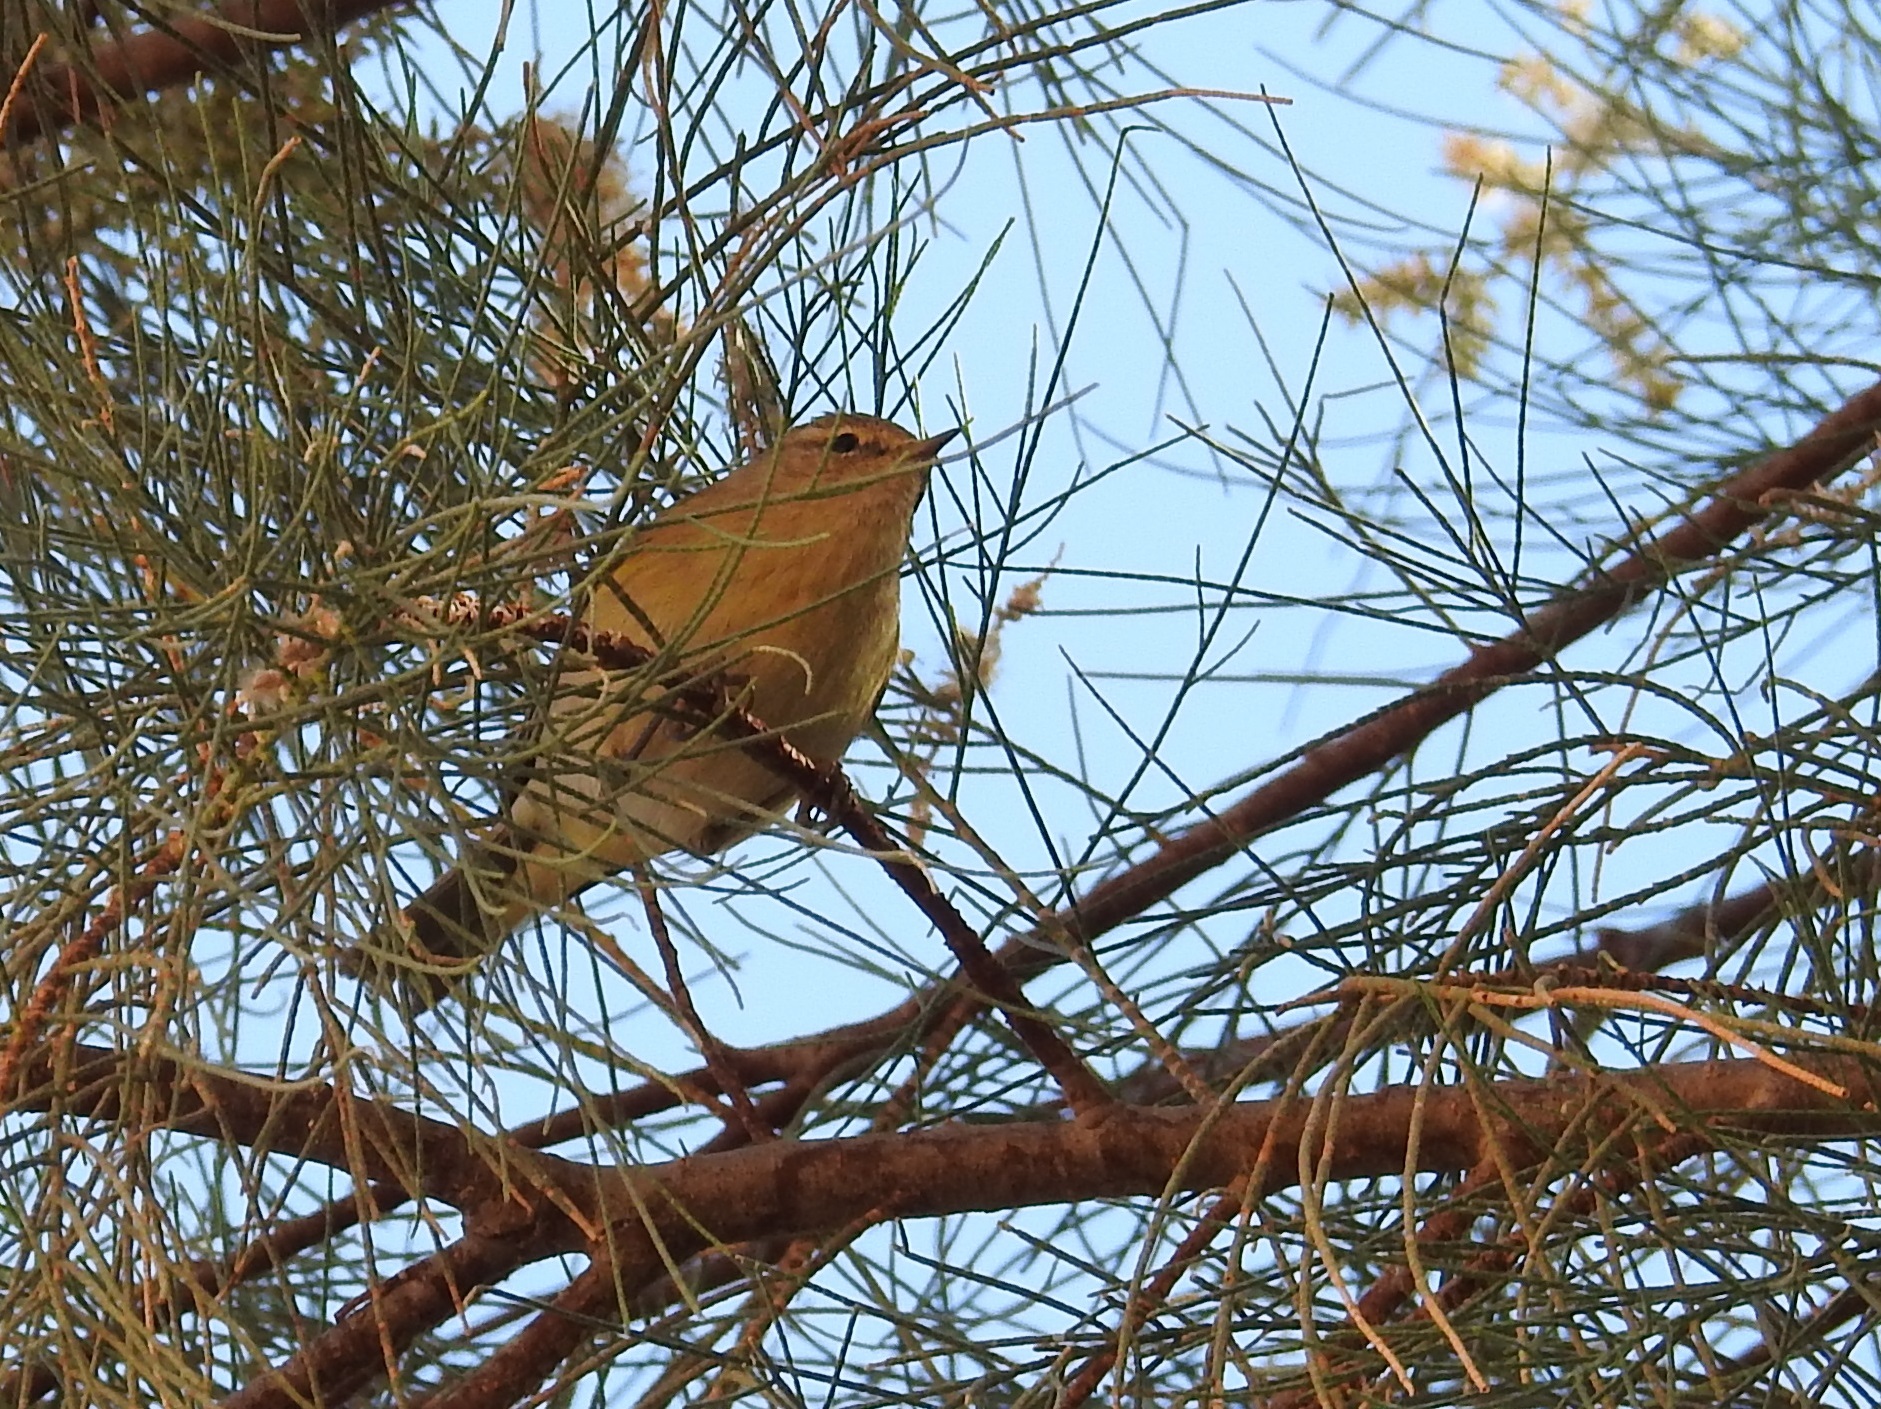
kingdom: Animalia
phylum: Chordata
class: Aves
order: Passeriformes
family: Phylloscopidae
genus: Phylloscopus
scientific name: Phylloscopus collybita
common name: Common chiffchaff
